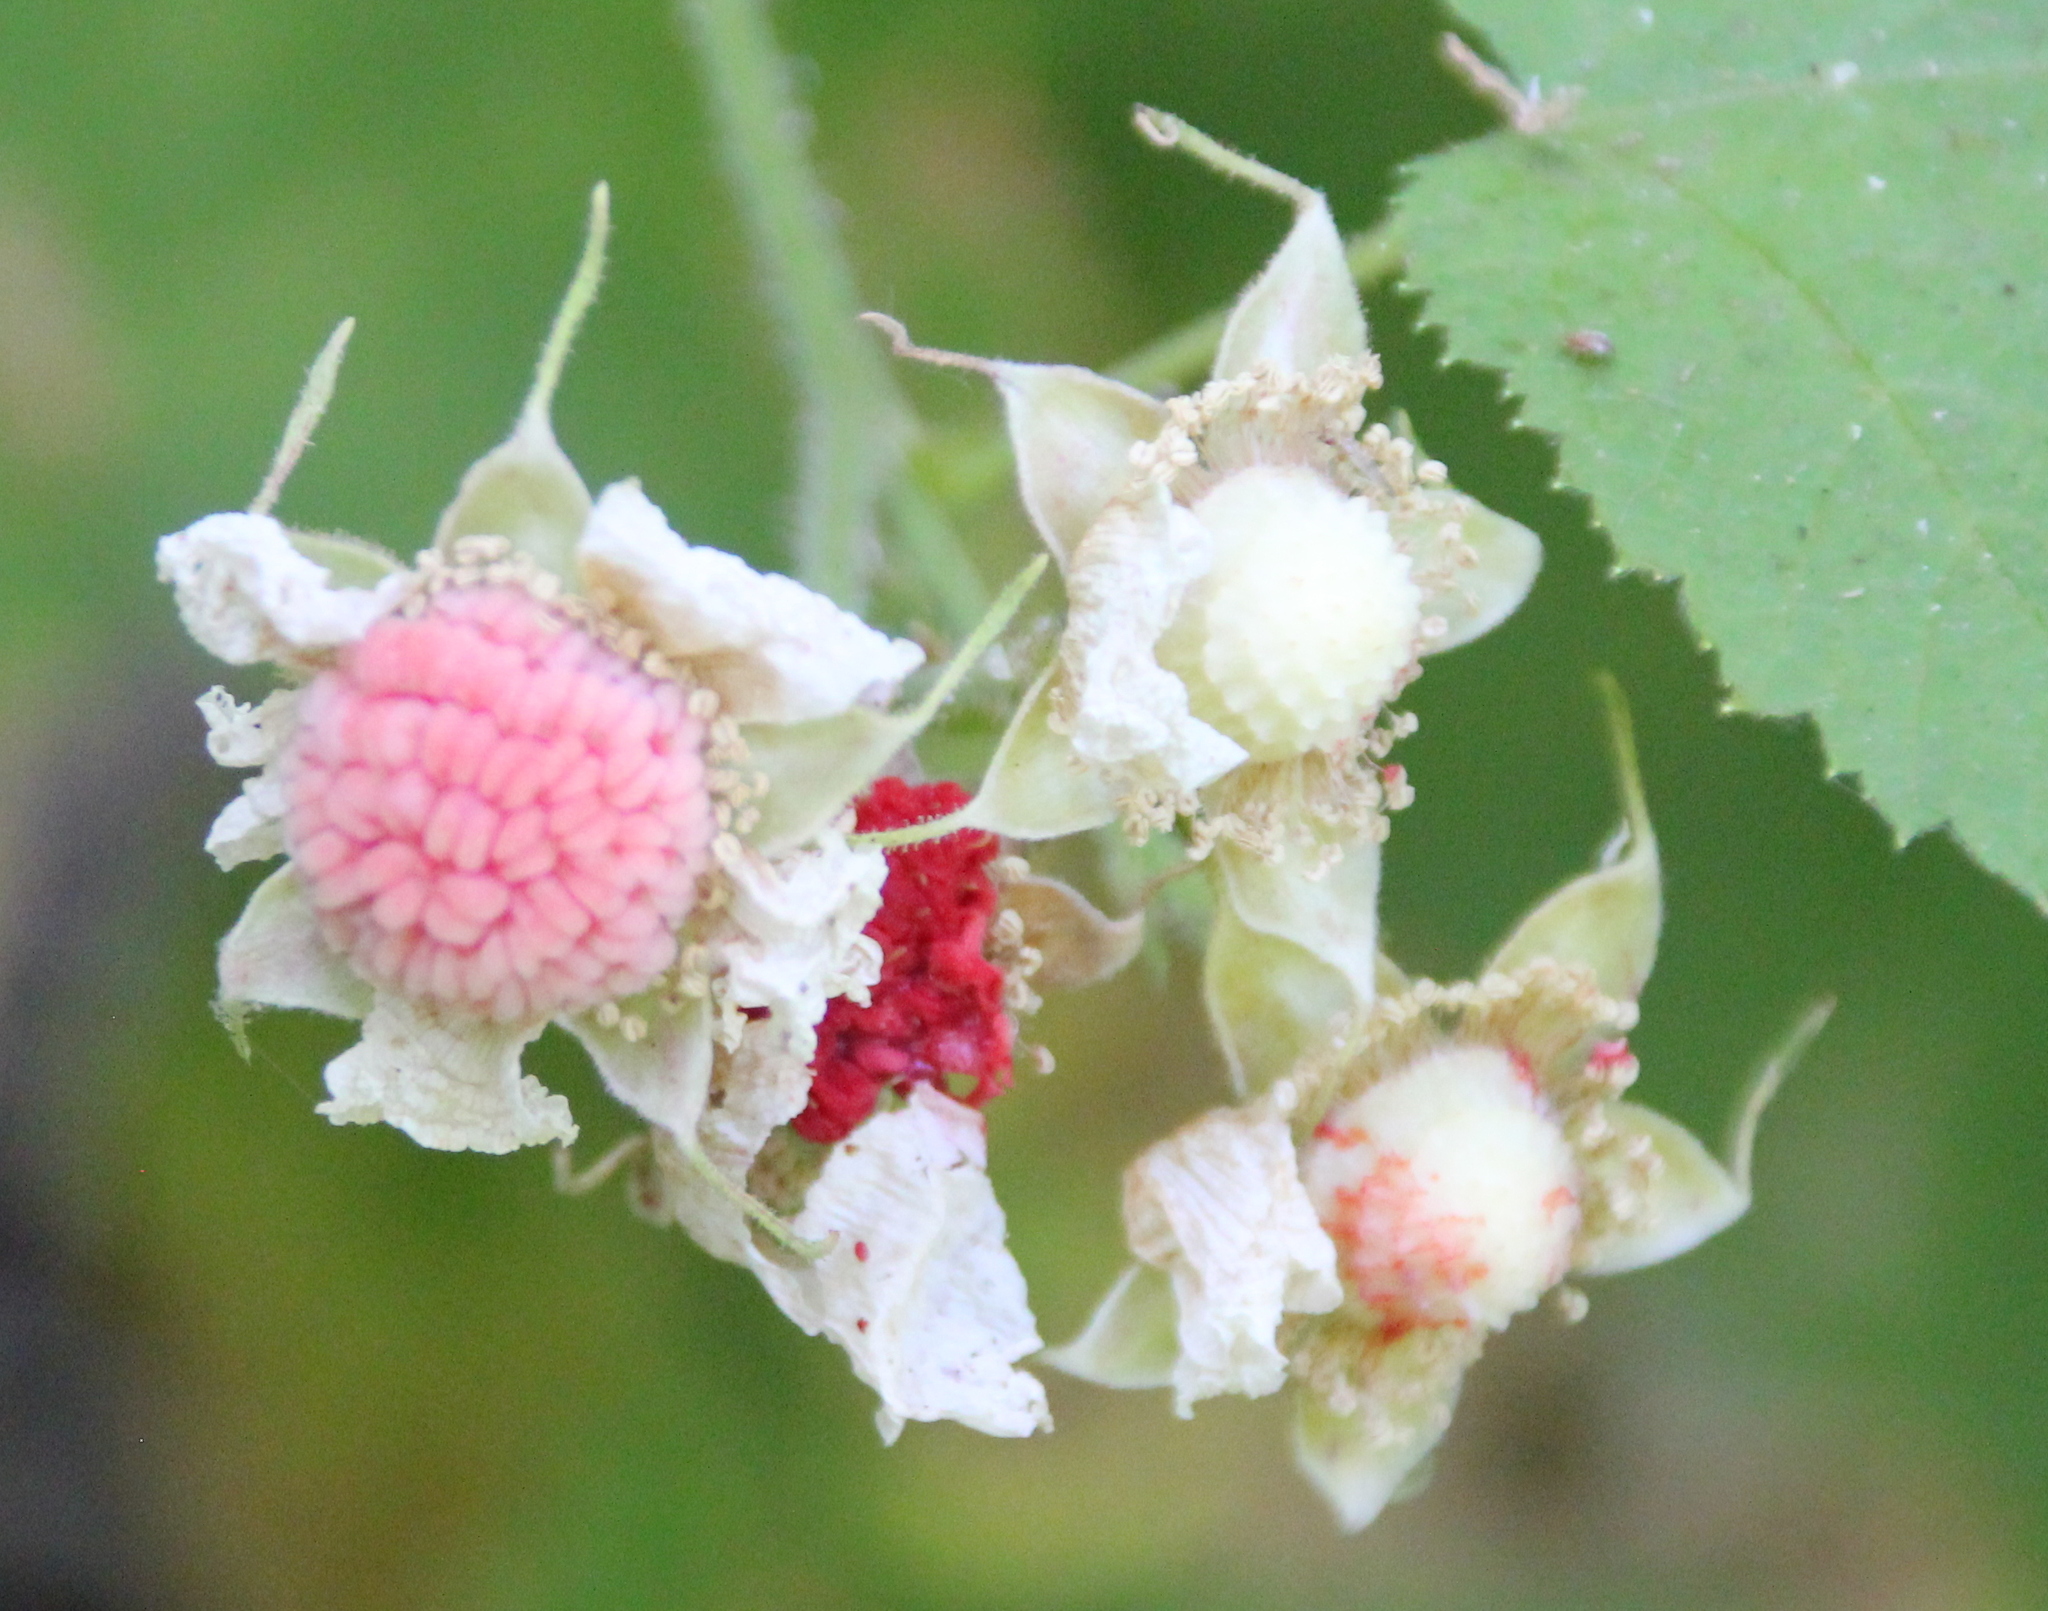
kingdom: Plantae
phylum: Tracheophyta
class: Magnoliopsida
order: Rosales
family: Rosaceae
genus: Rubus
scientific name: Rubus parviflorus
